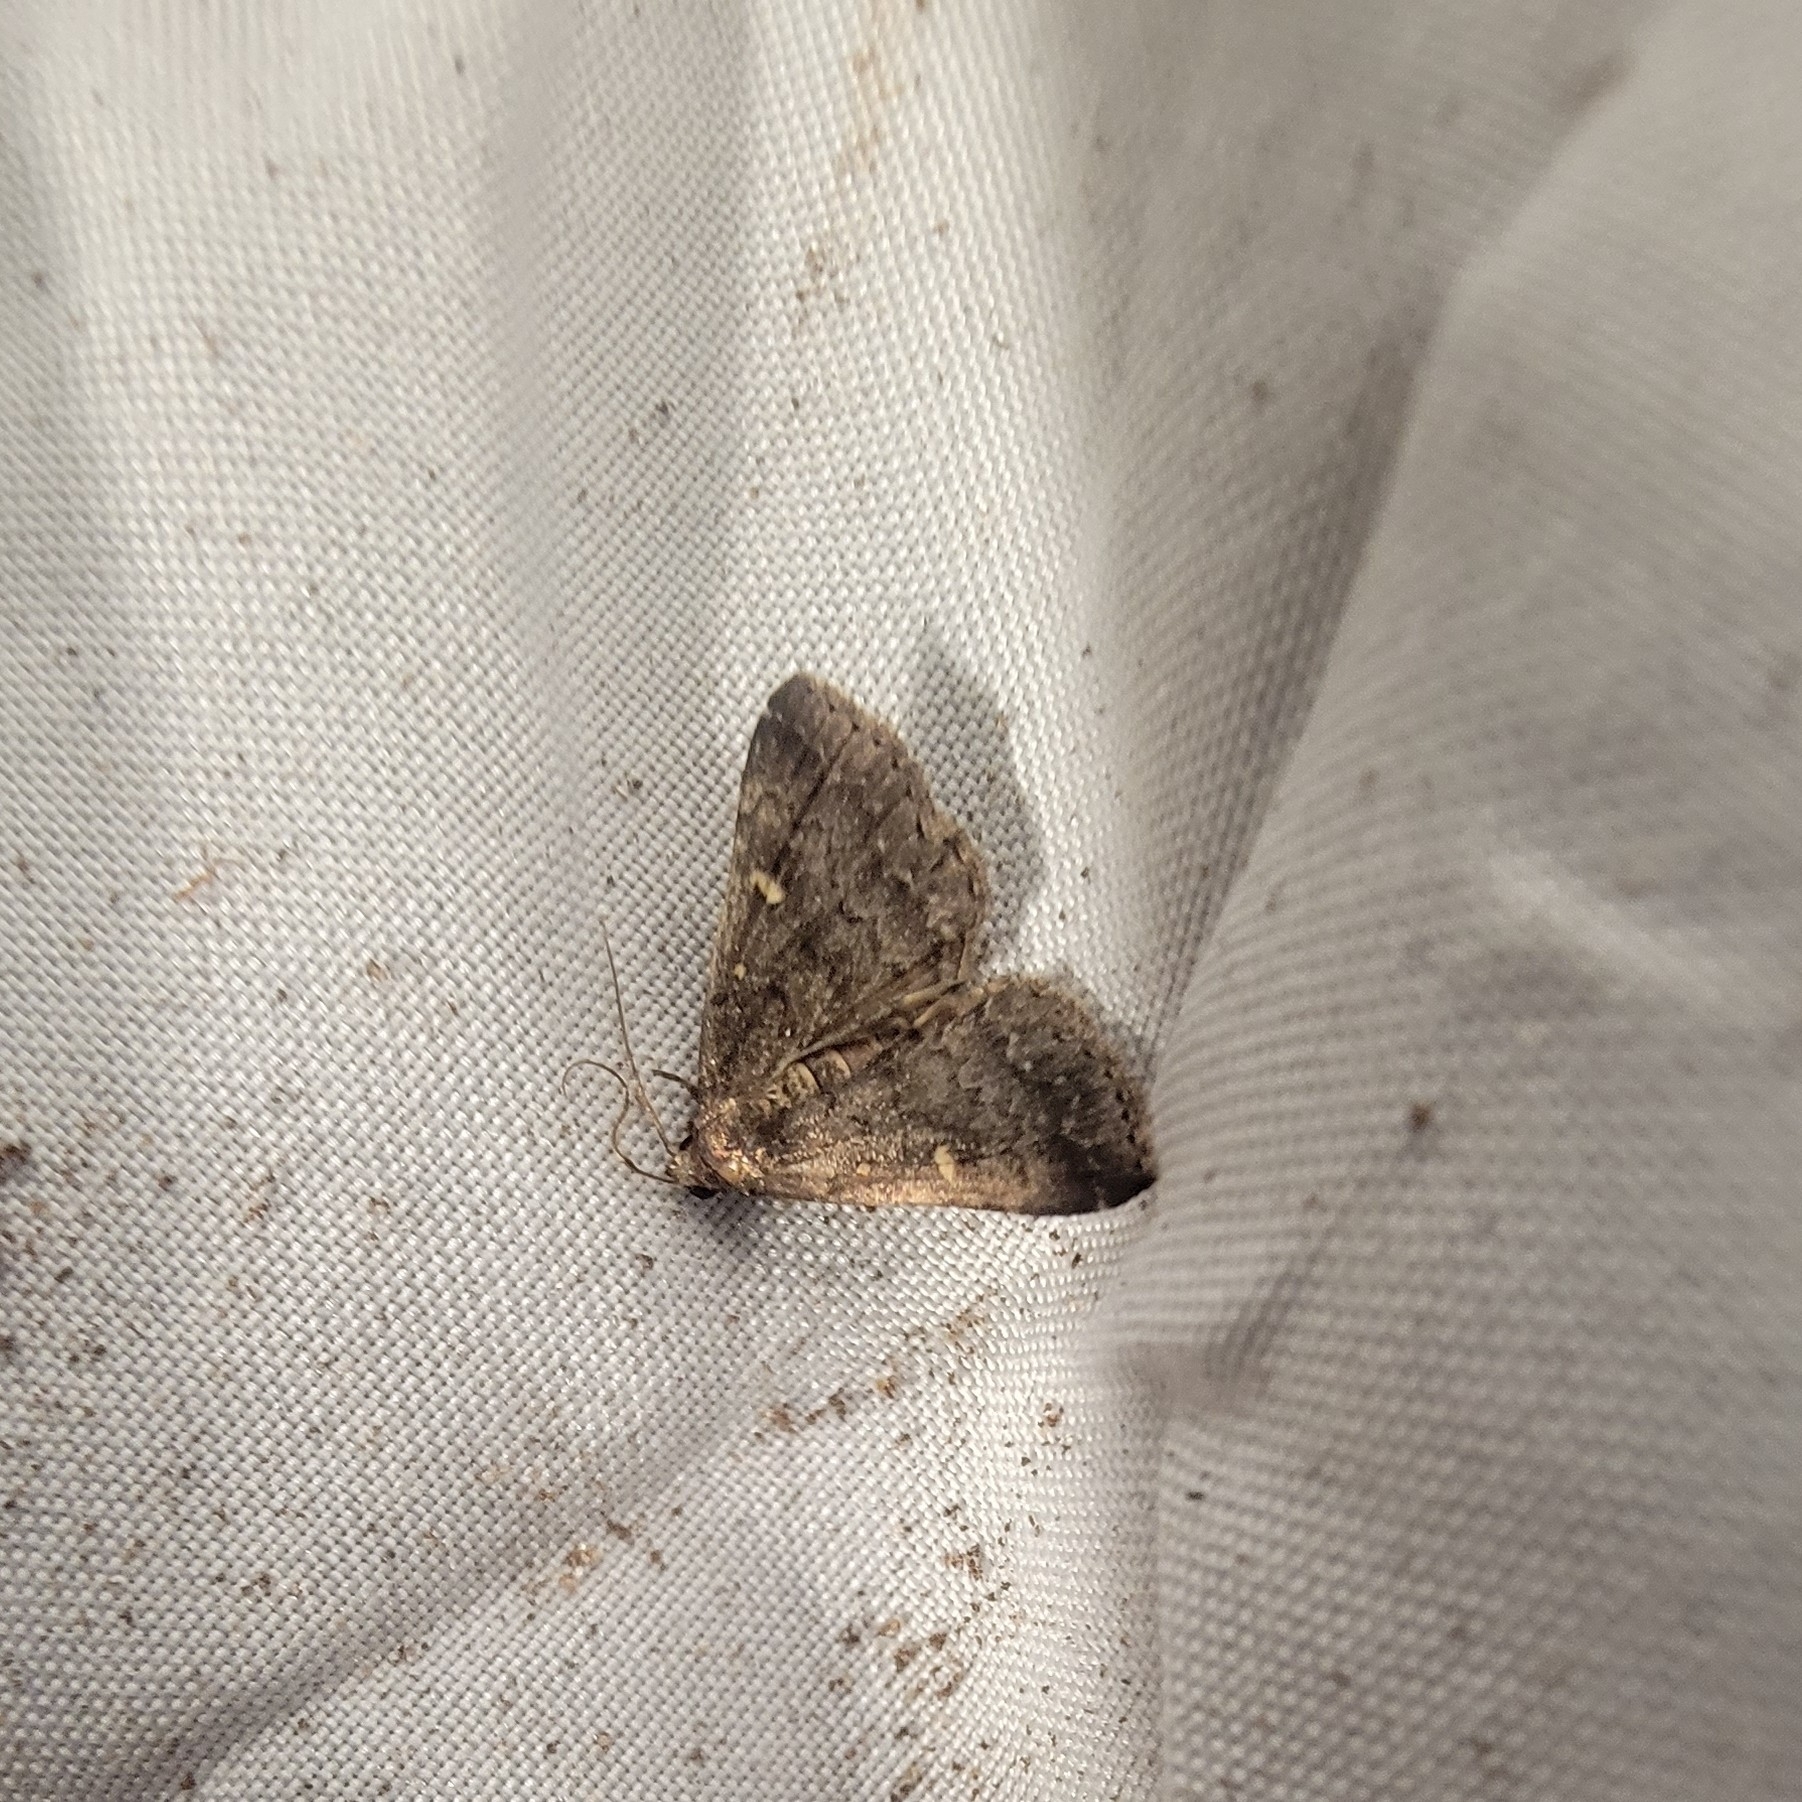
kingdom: Animalia
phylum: Arthropoda
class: Insecta
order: Lepidoptera
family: Erebidae
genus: Tetanolita
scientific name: Tetanolita mynesalis
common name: Smoky tetanolita moth
